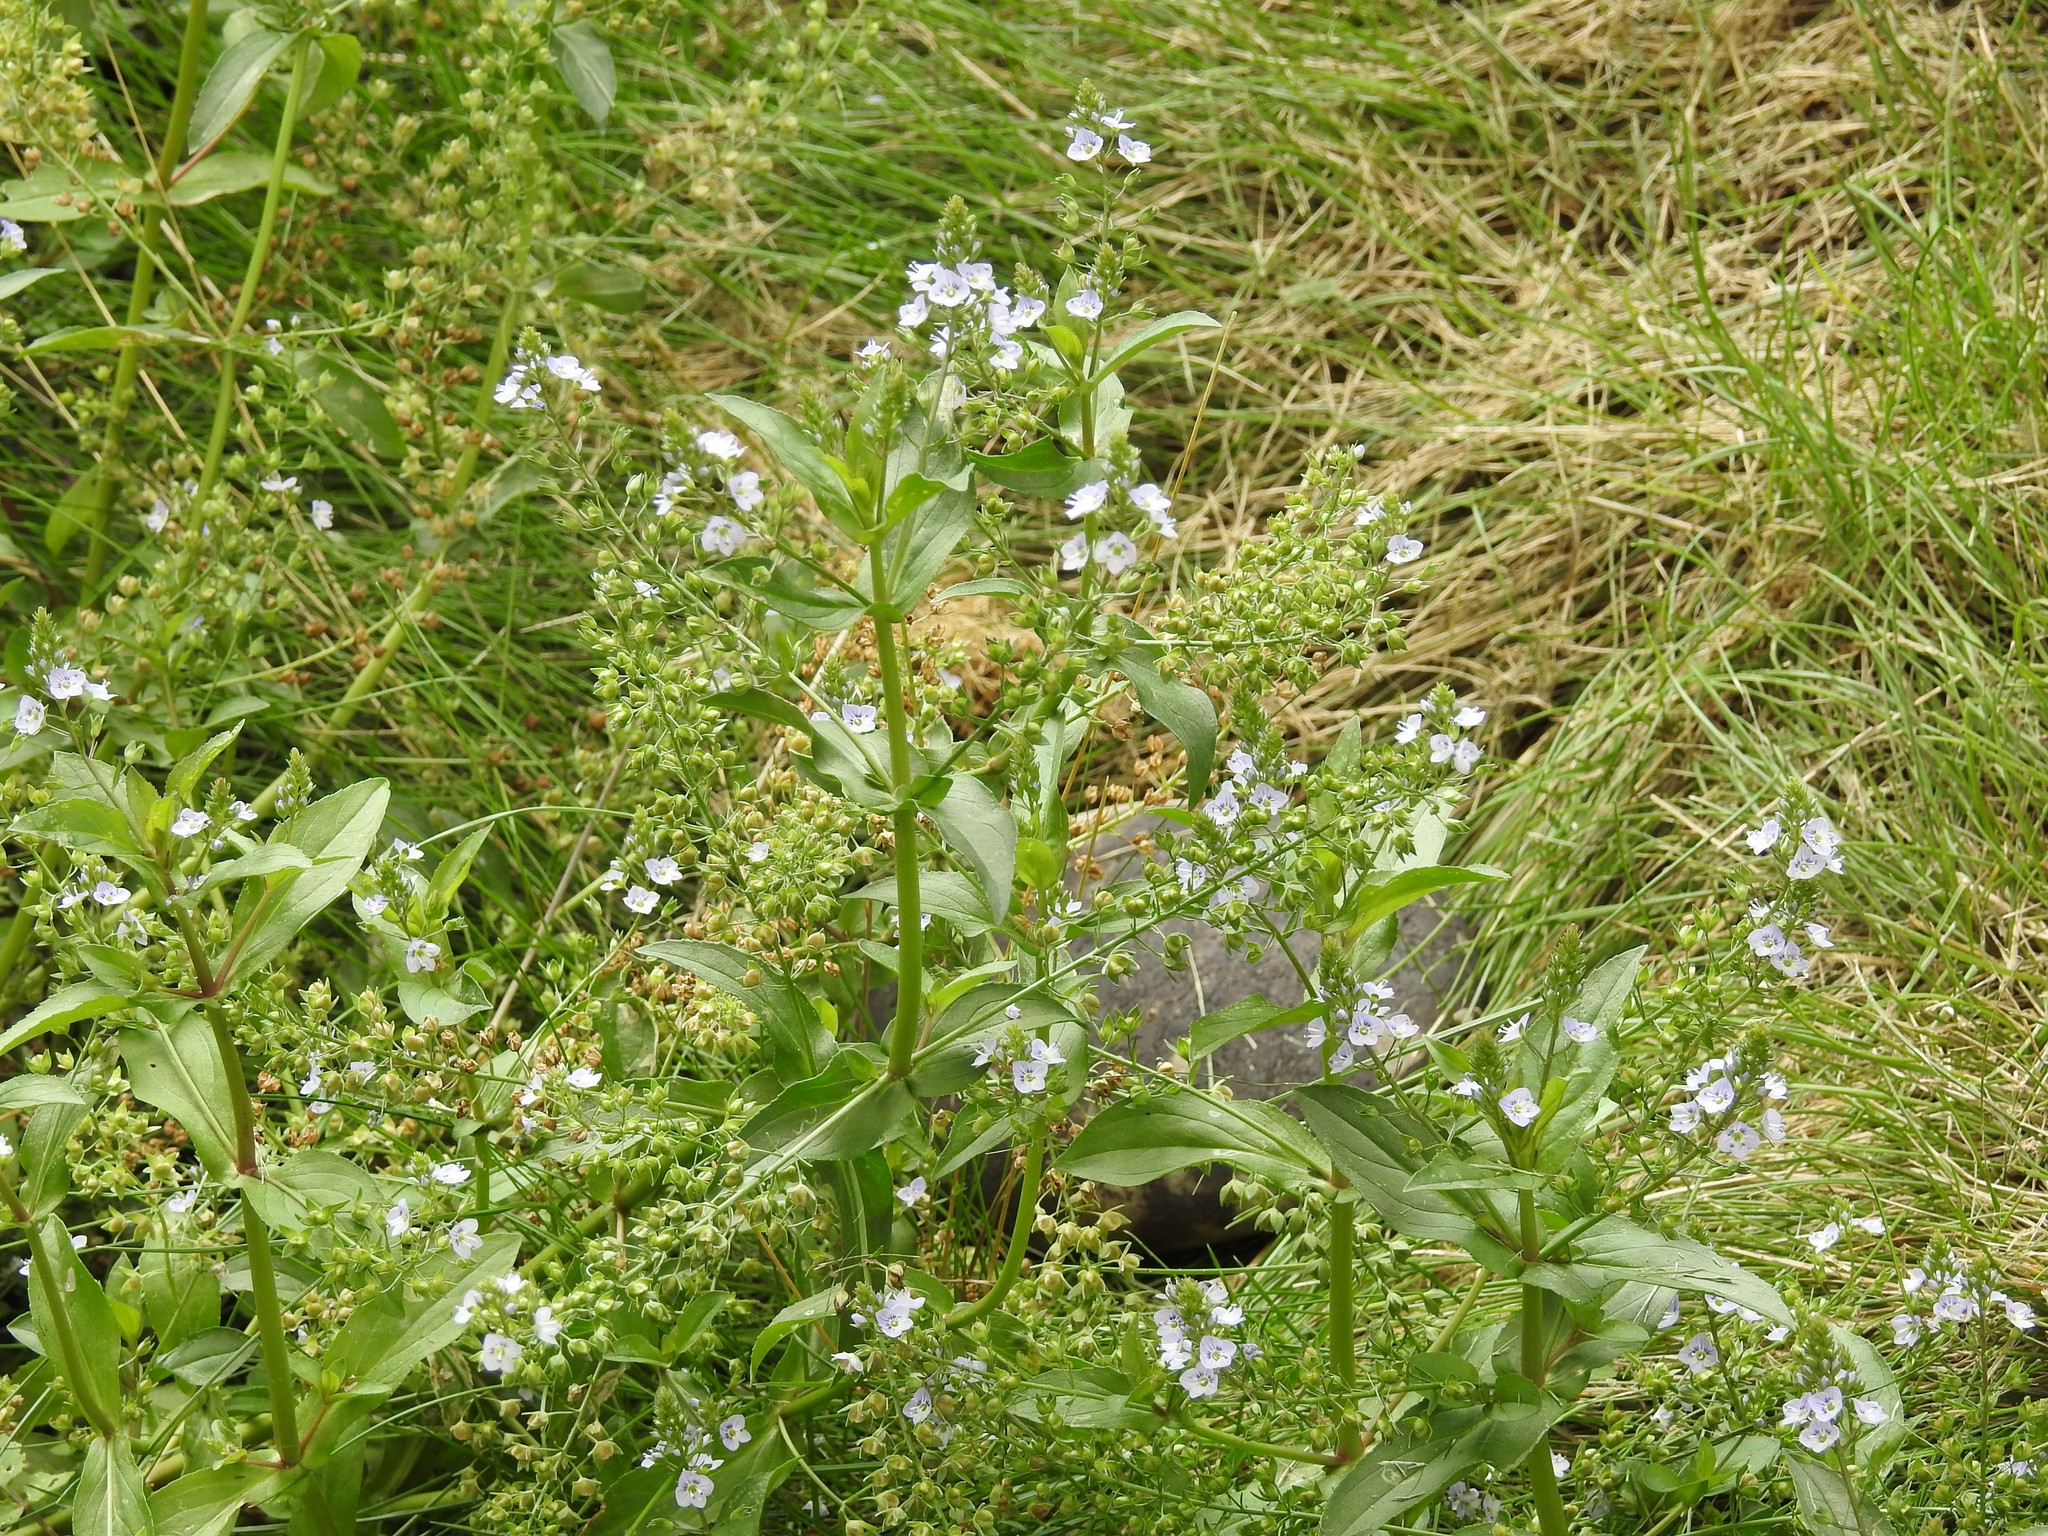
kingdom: Plantae
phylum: Tracheophyta
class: Magnoliopsida
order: Lamiales
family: Plantaginaceae
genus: Veronica
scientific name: Veronica anagallis-aquatica
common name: Water speedwell
